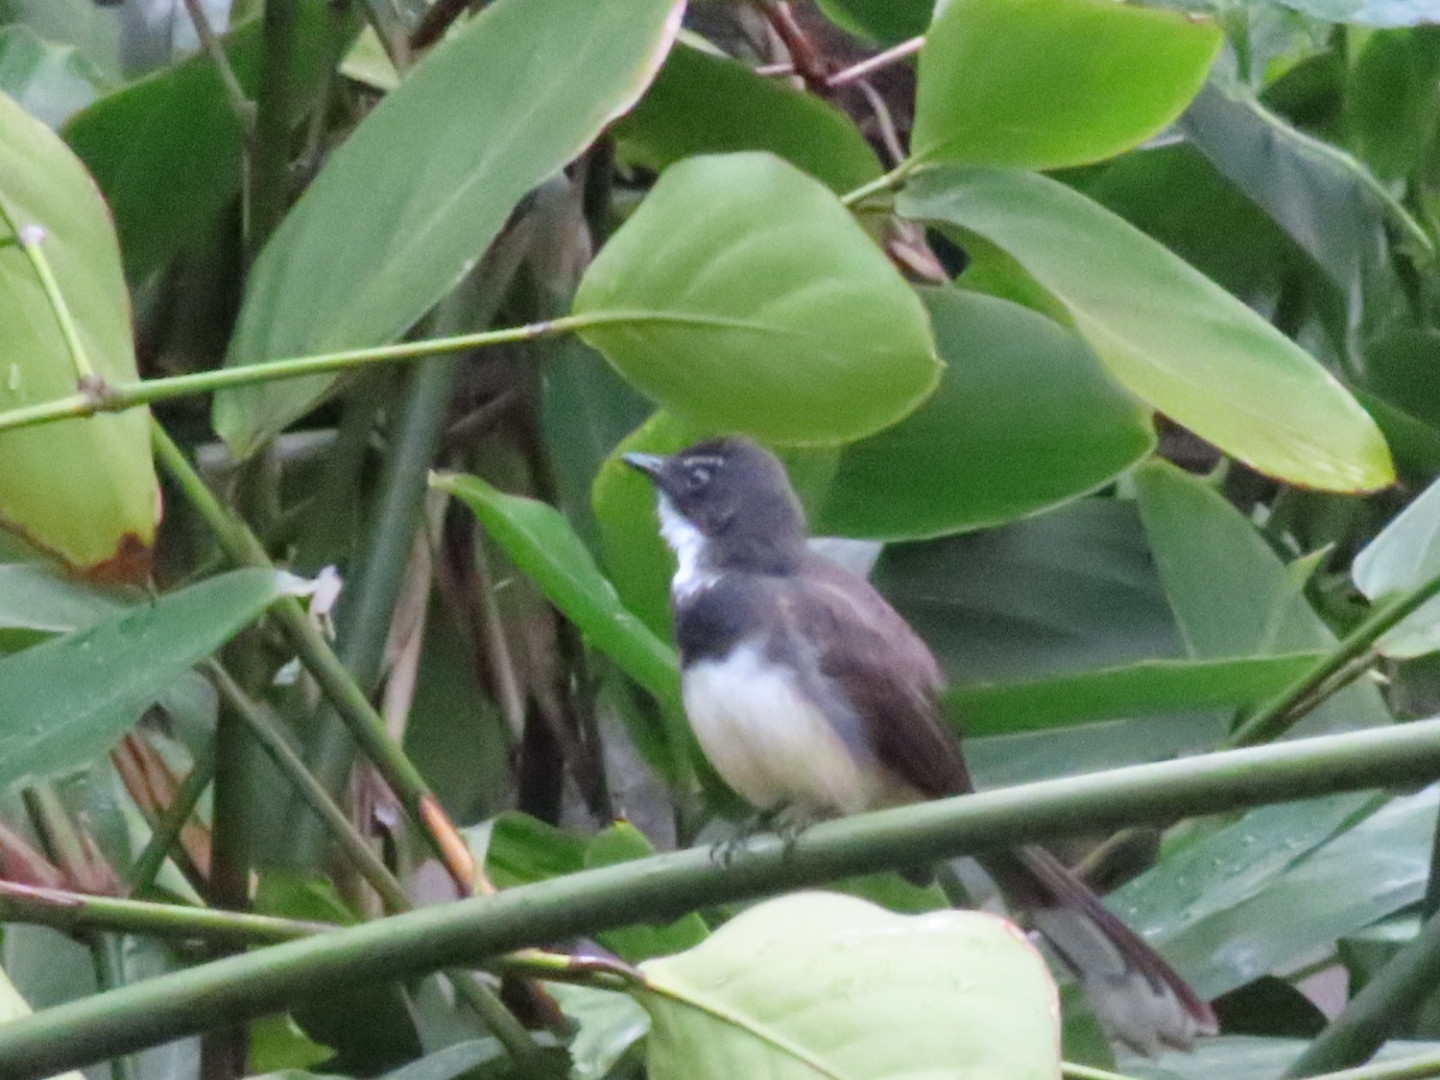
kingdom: Animalia
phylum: Chordata
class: Aves
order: Passeriformes
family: Rhipiduridae
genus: Rhipidura
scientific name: Rhipidura javanica
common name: Pied fantail
